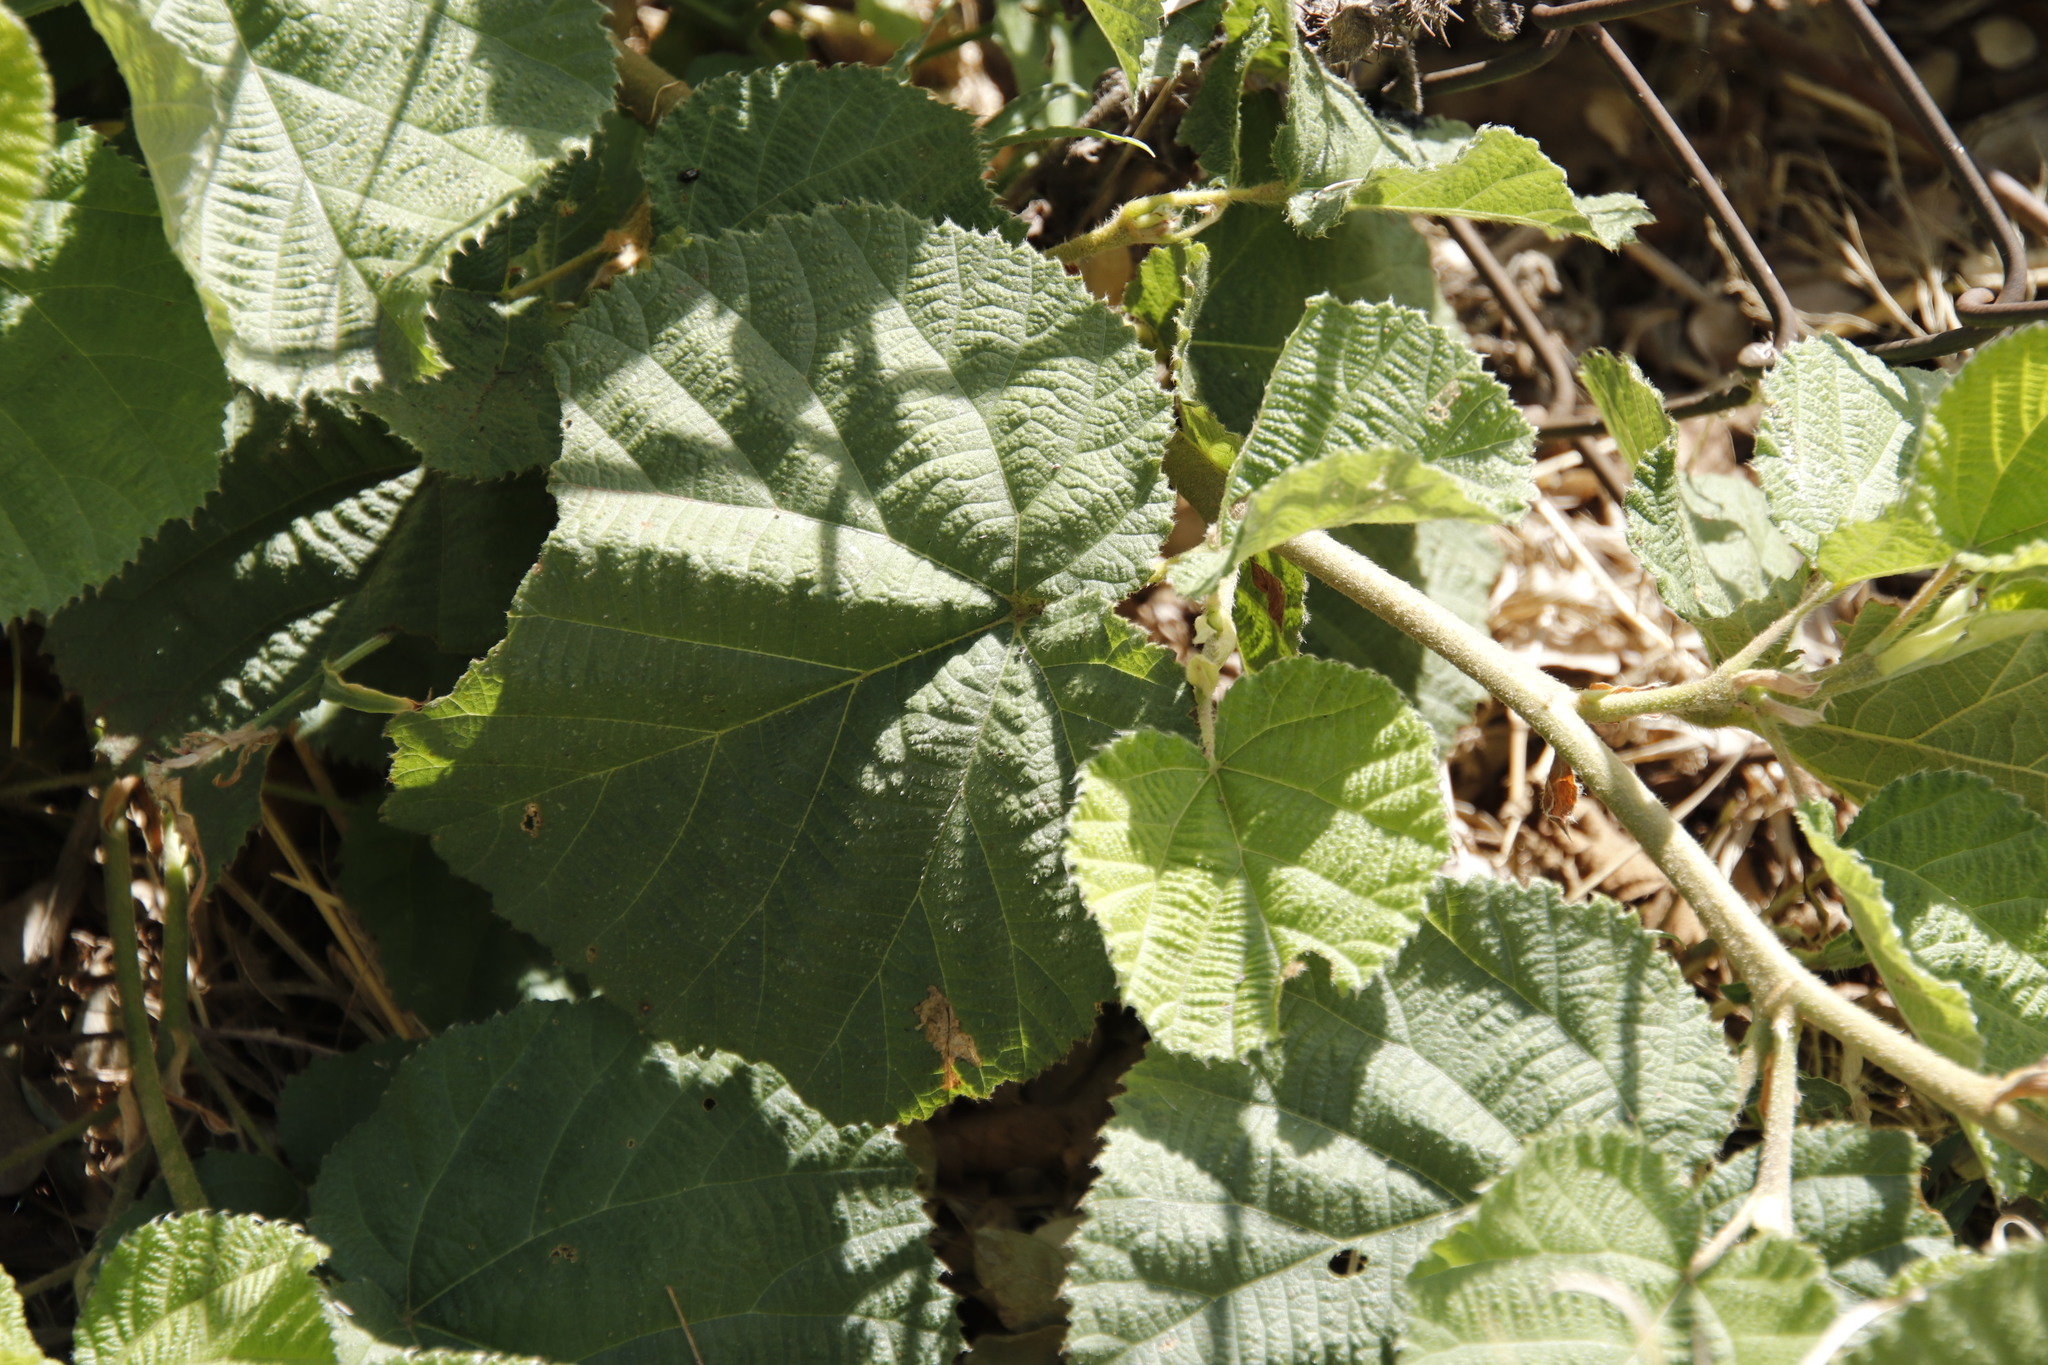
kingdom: Plantae
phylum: Tracheophyta
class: Magnoliopsida
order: Malvales
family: Malvaceae
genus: Grewia
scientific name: Grewia villosa
